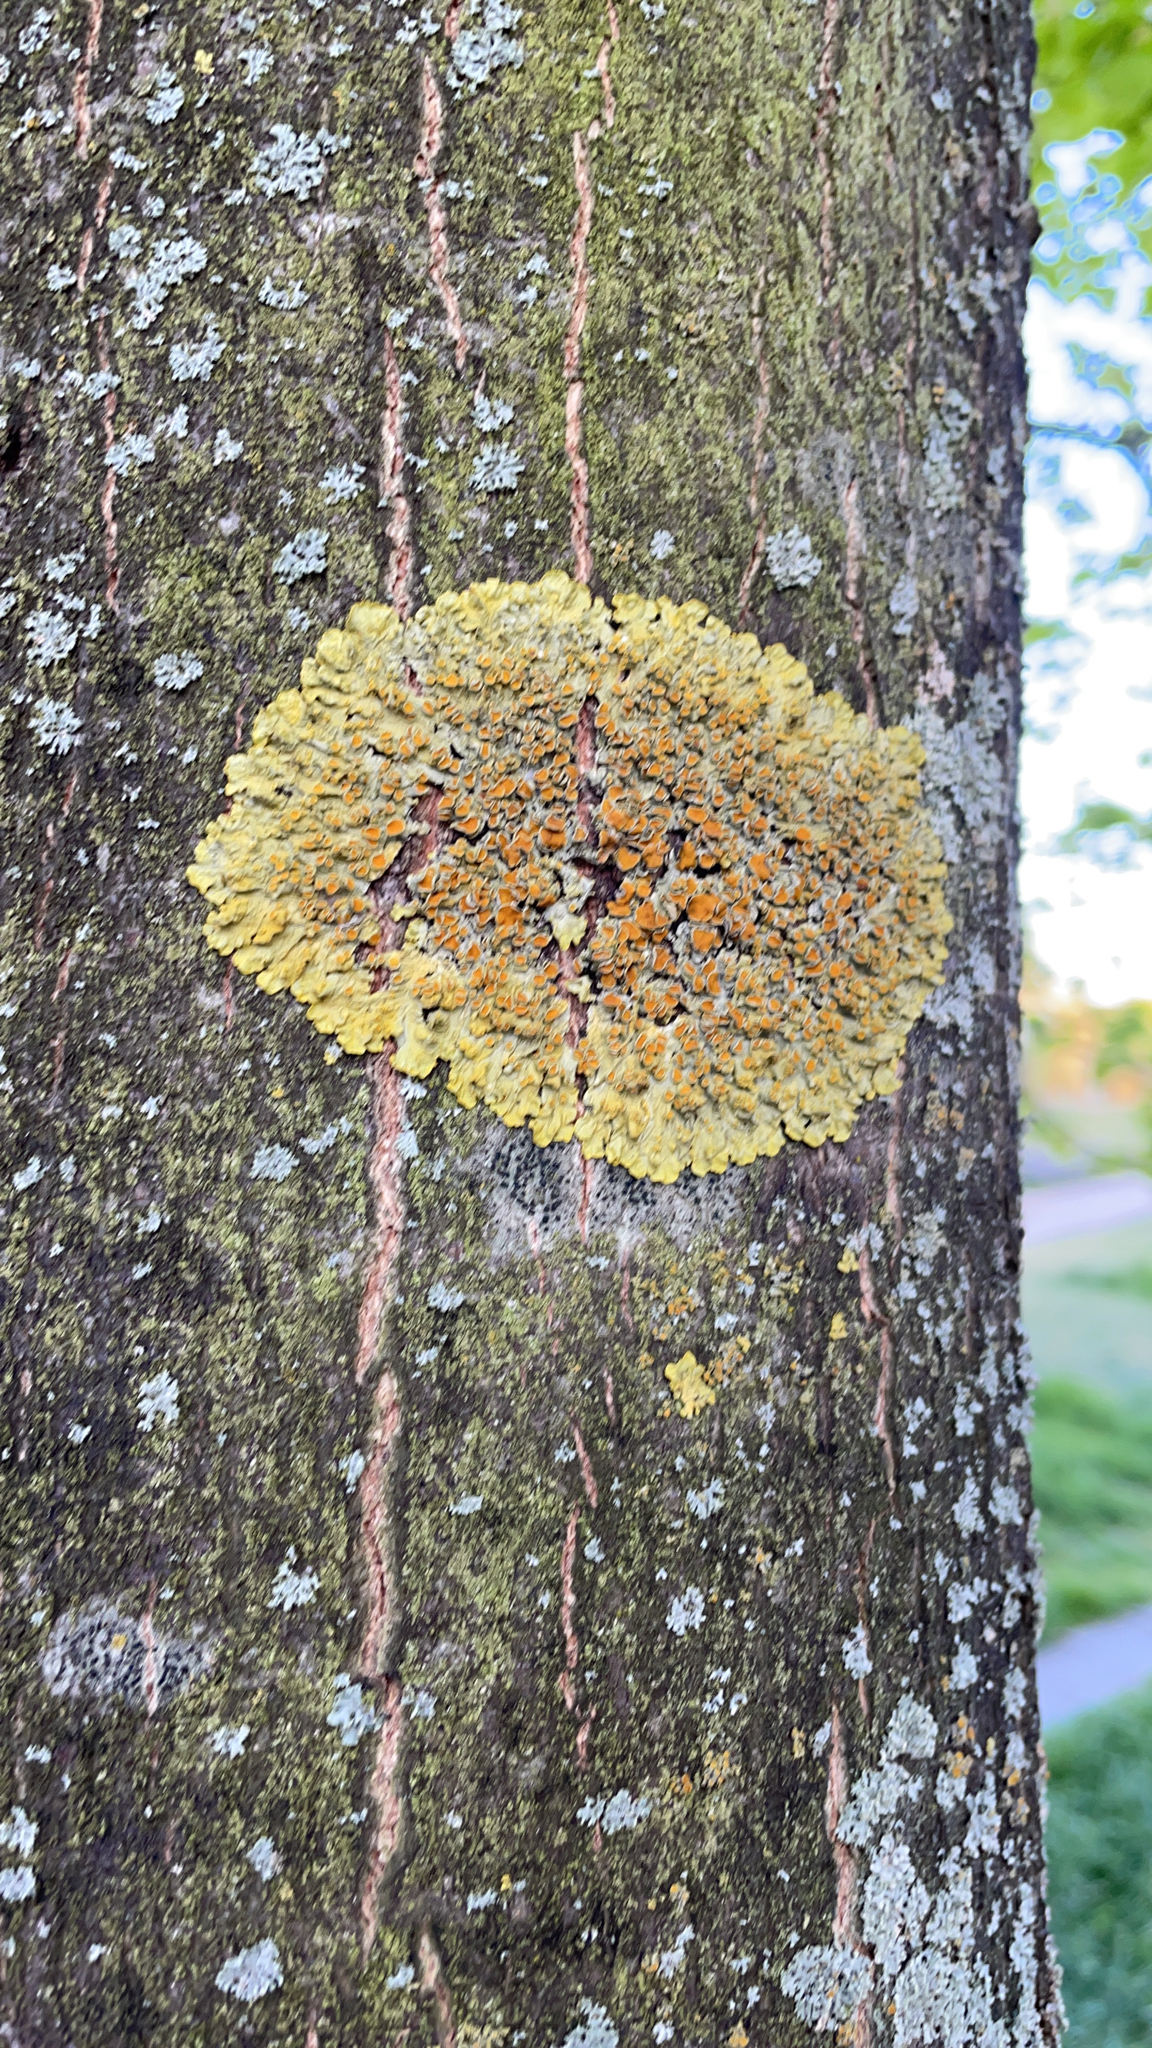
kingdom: Fungi
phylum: Ascomycota
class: Lecanoromycetes
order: Teloschistales
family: Teloschistaceae
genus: Xanthoria
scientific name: Xanthoria parietina
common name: Common orange lichen
